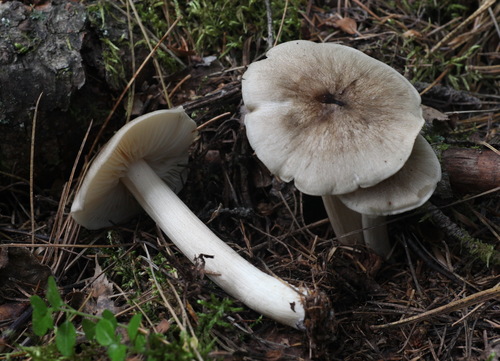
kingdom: Fungi
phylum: Basidiomycota
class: Agaricomycetes
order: Agaricales
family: Tricholomataceae
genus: Megacollybia
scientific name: Megacollybia platyphylla
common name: Whitelaced shank
